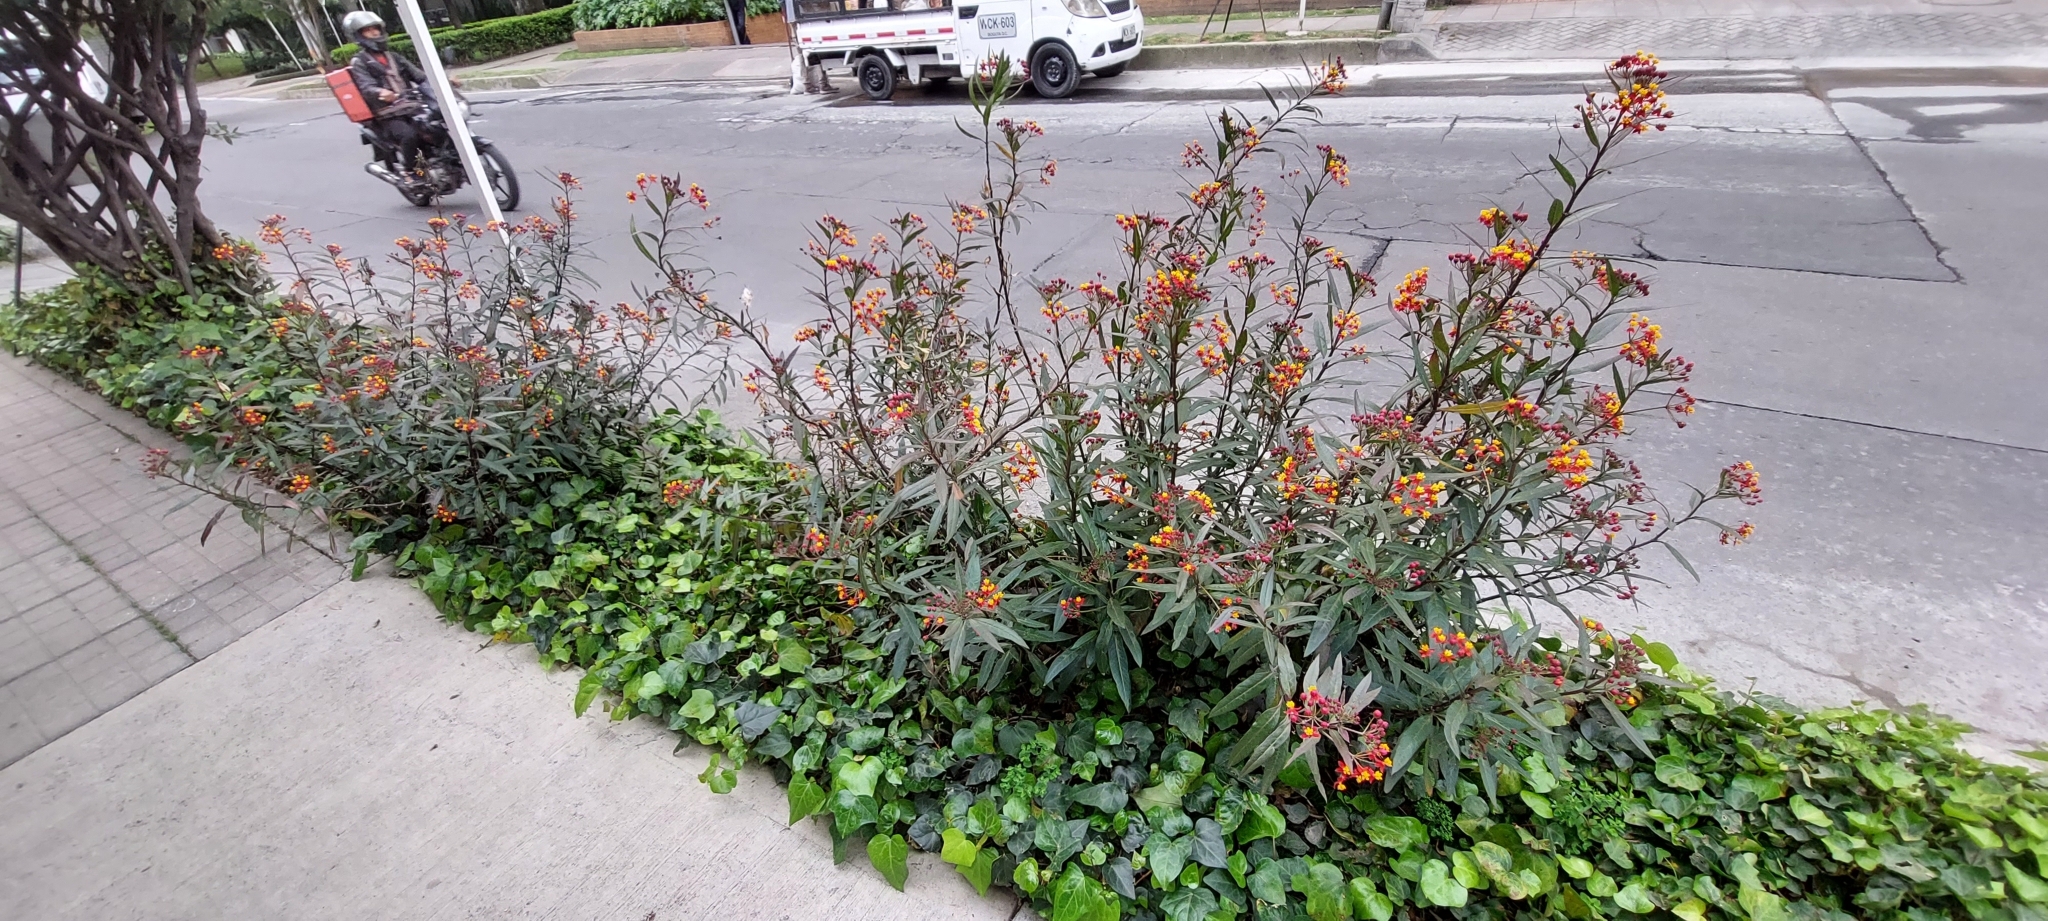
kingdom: Plantae
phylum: Tracheophyta
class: Magnoliopsida
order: Gentianales
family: Apocynaceae
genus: Asclepias
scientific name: Asclepias curassavica
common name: Bloodflower
